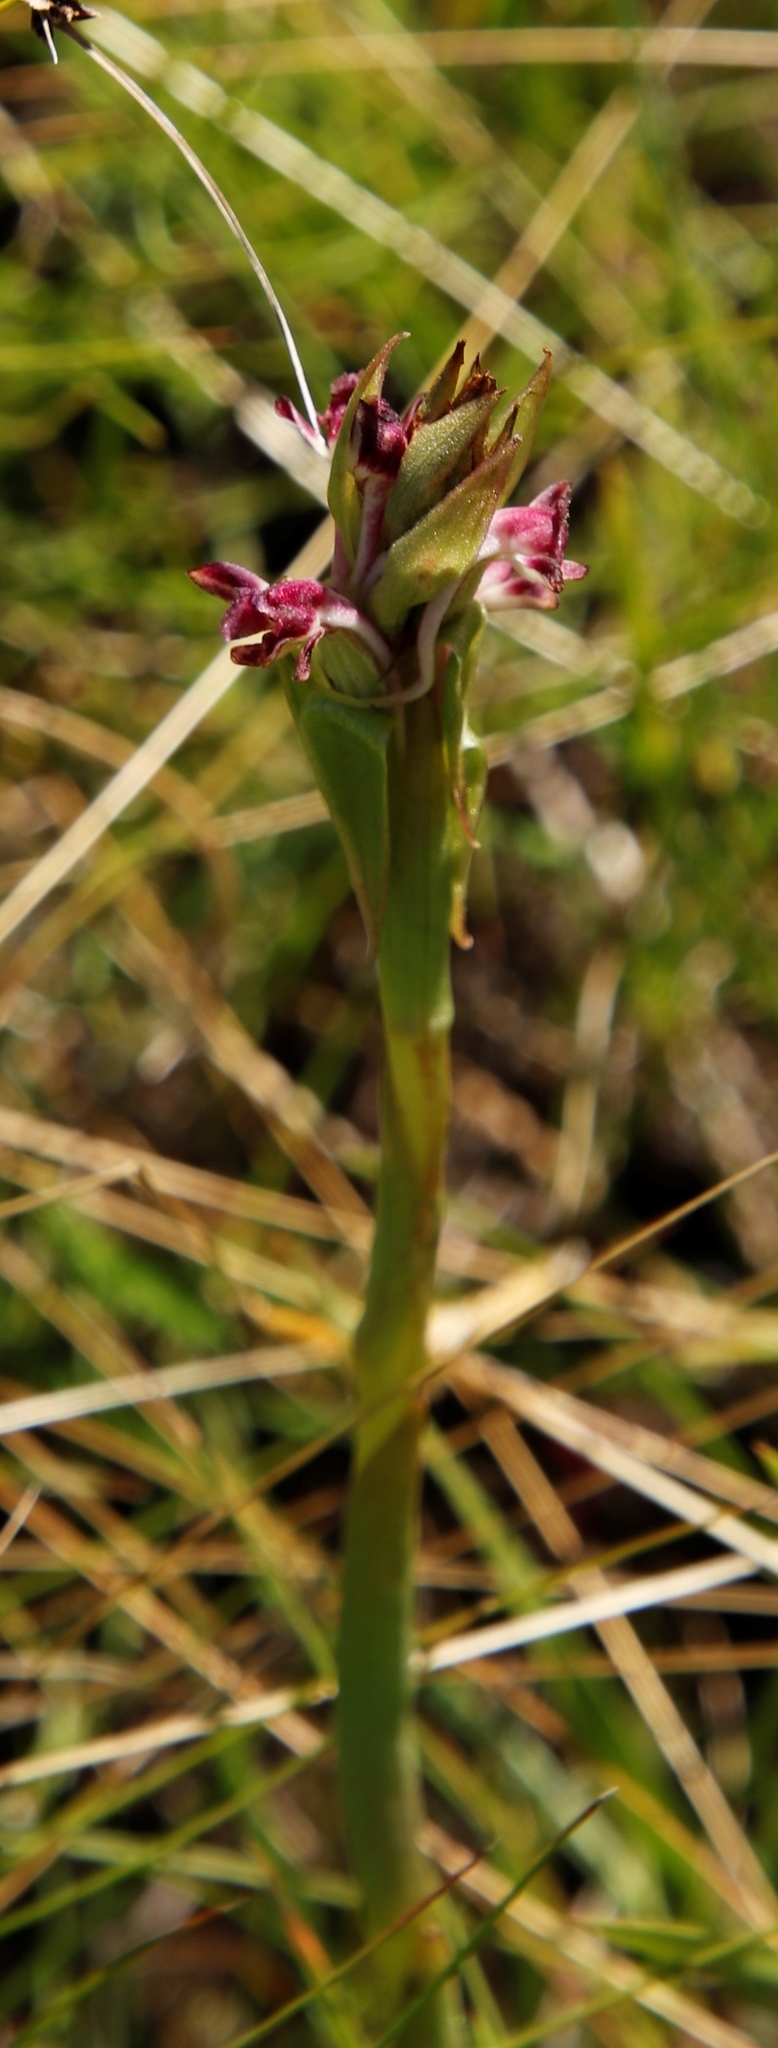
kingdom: Plantae
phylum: Tracheophyta
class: Liliopsida
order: Asparagales
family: Orchidaceae
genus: Satyrium
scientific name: Satyrium longicauda
